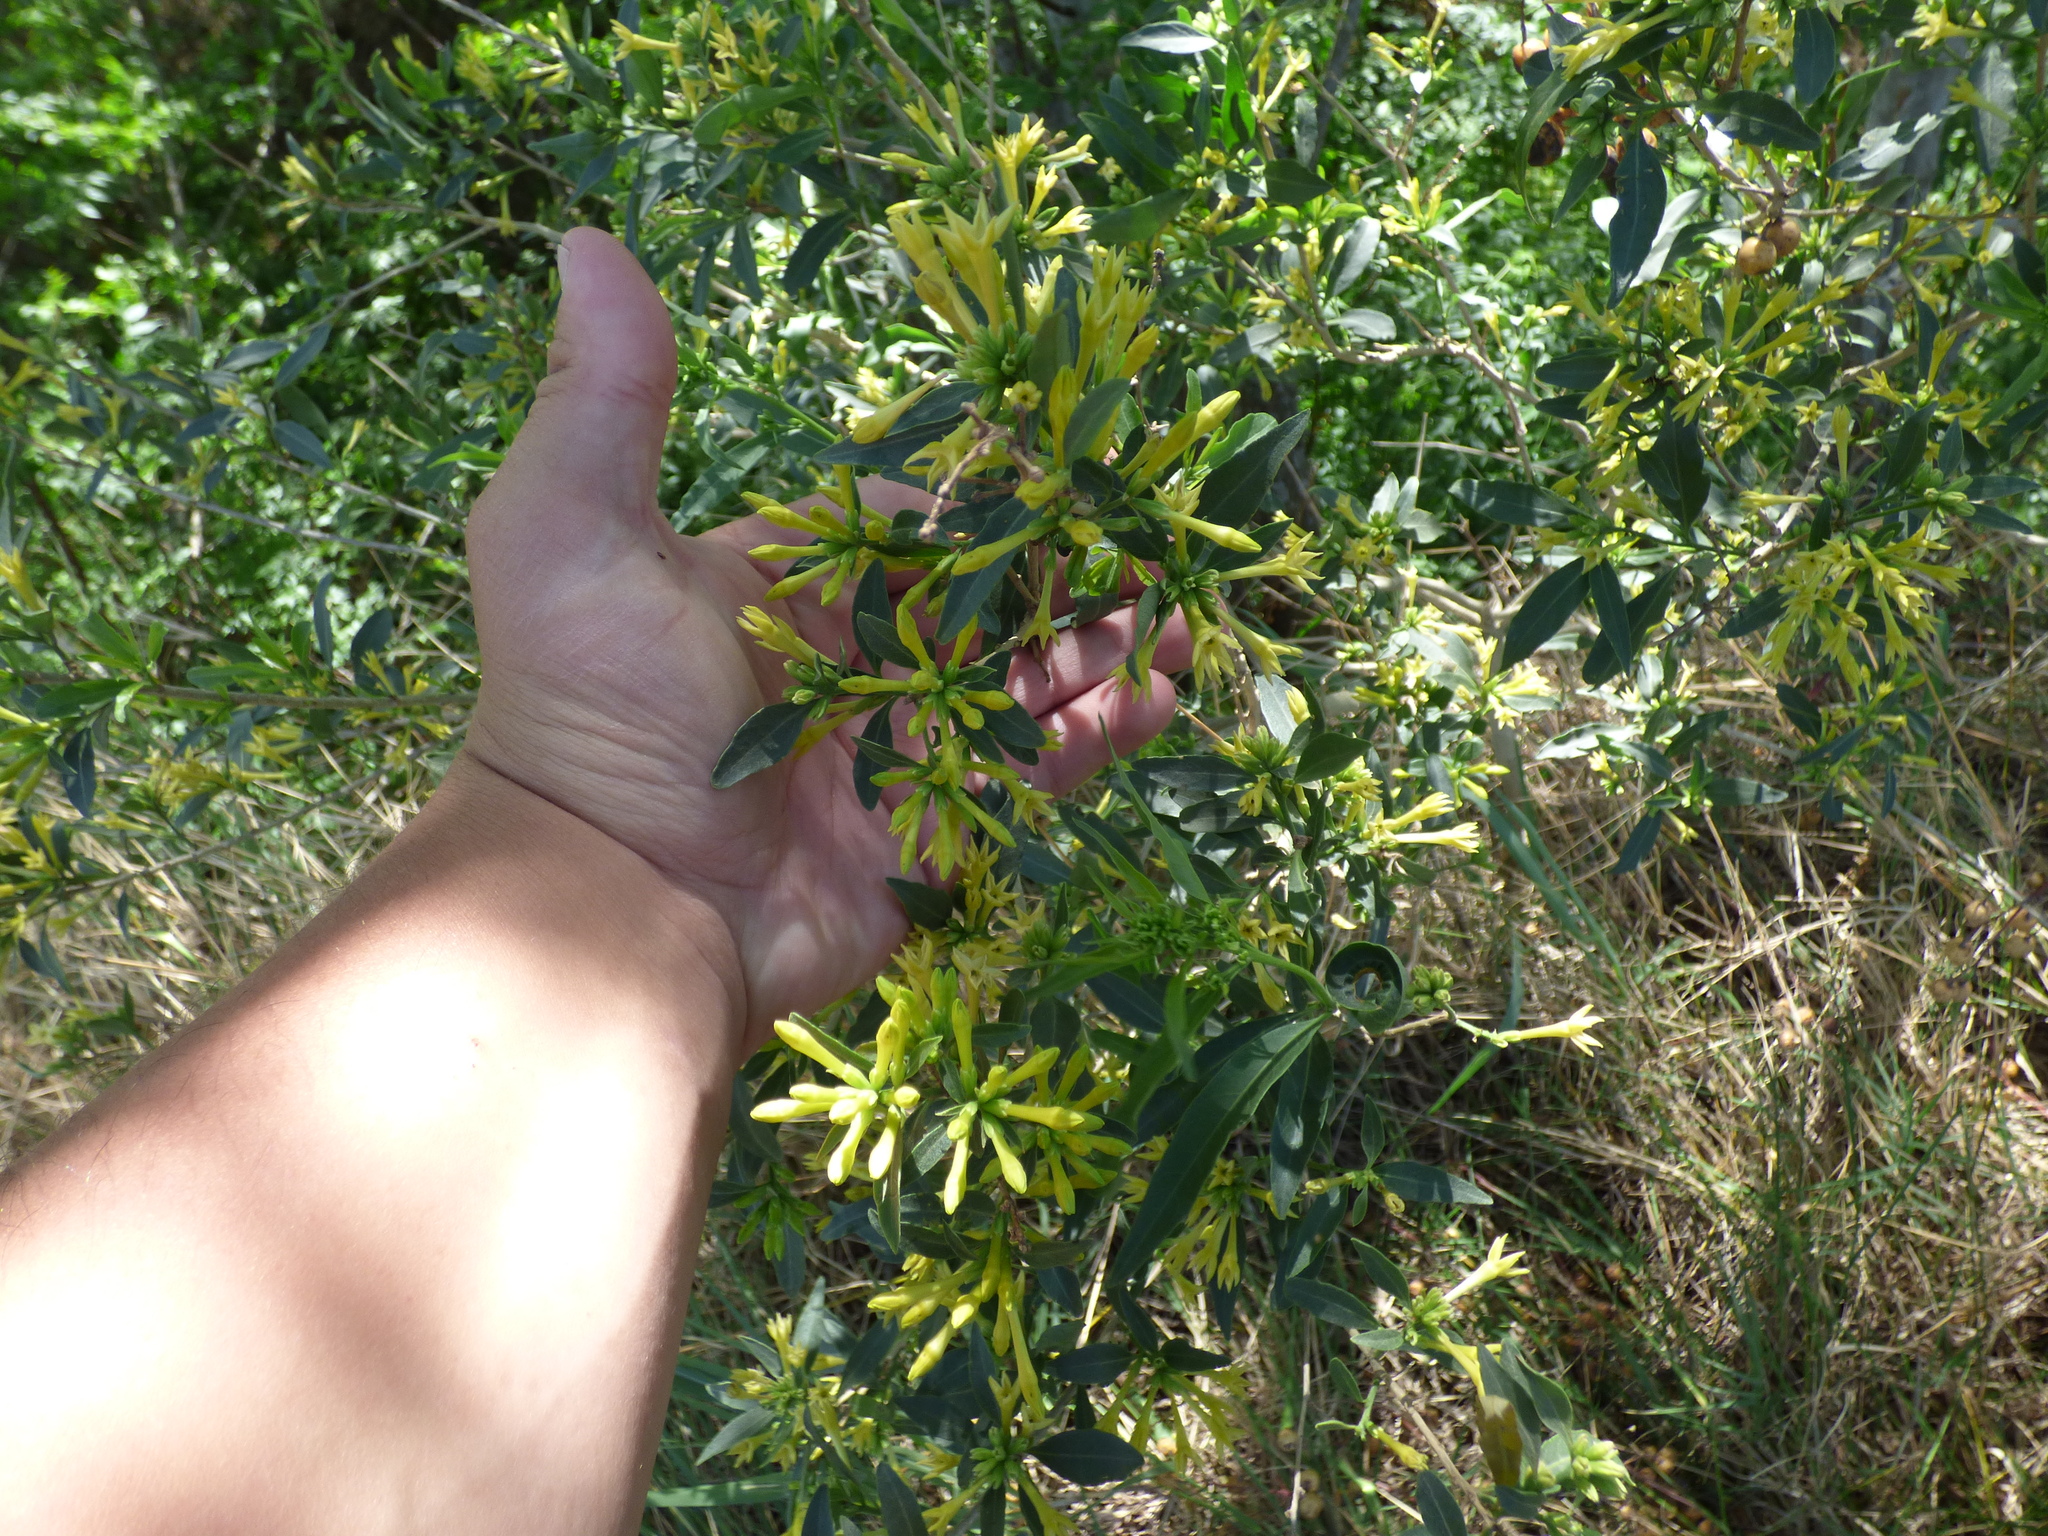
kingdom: Plantae
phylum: Tracheophyta
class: Magnoliopsida
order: Solanales
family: Solanaceae
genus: Cestrum
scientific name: Cestrum parqui
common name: Chilean cestrum
